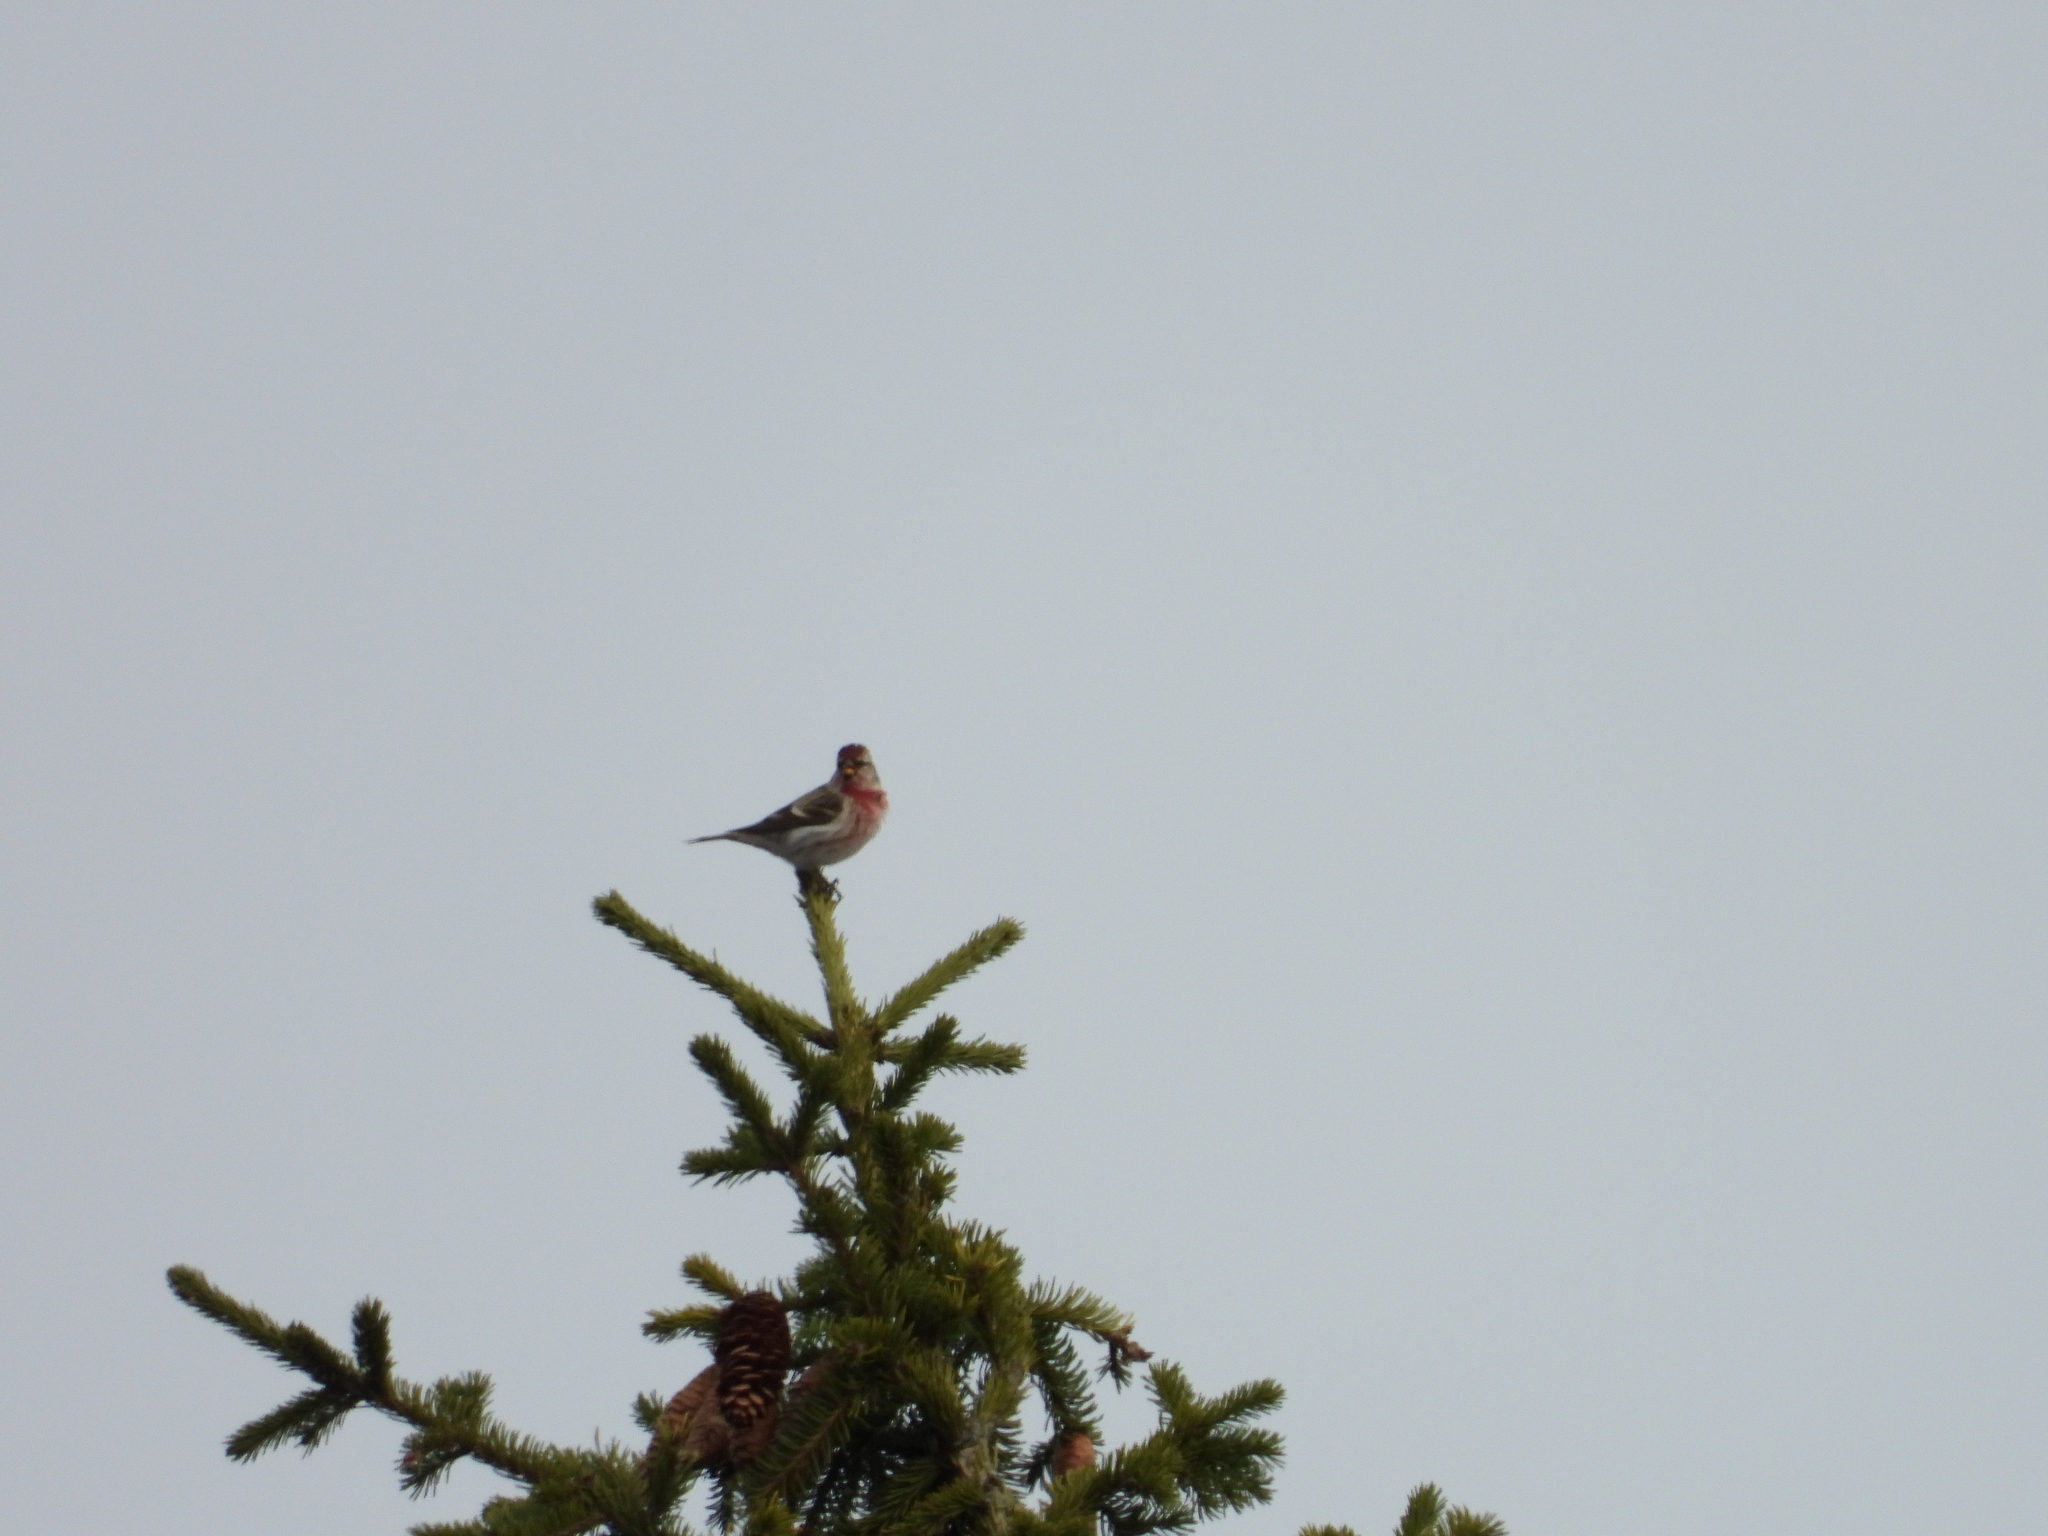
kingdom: Animalia
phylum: Chordata
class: Aves
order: Passeriformes
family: Fringillidae
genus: Acanthis
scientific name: Acanthis flammea
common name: Common redpoll
